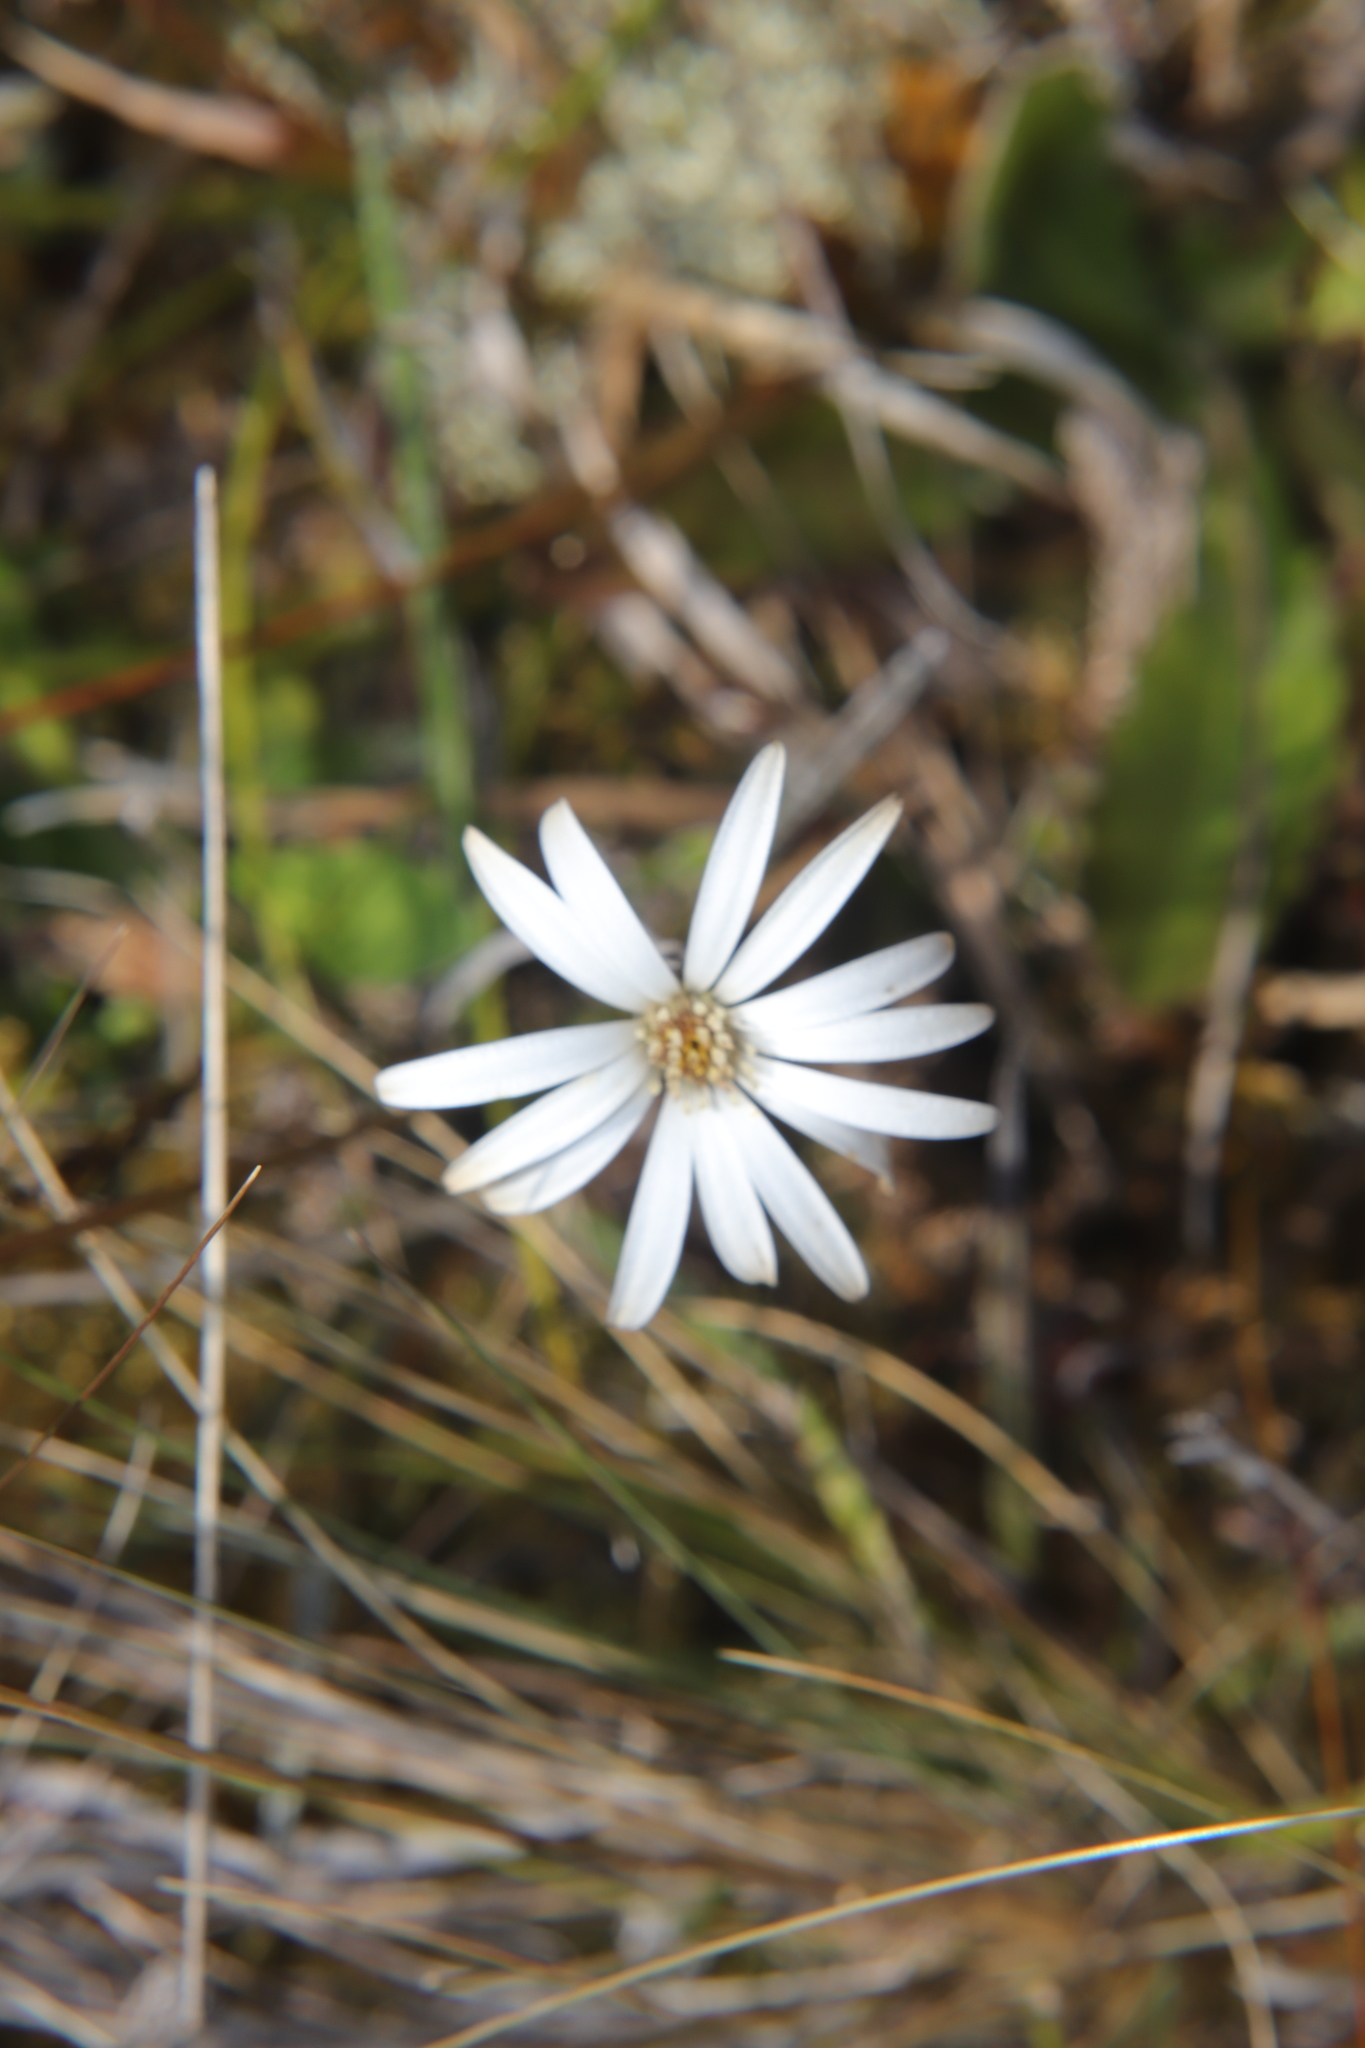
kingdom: Plantae
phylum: Tracheophyta
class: Magnoliopsida
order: Asterales
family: Asteraceae
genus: Celmisia
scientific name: Celmisia gracilenta
